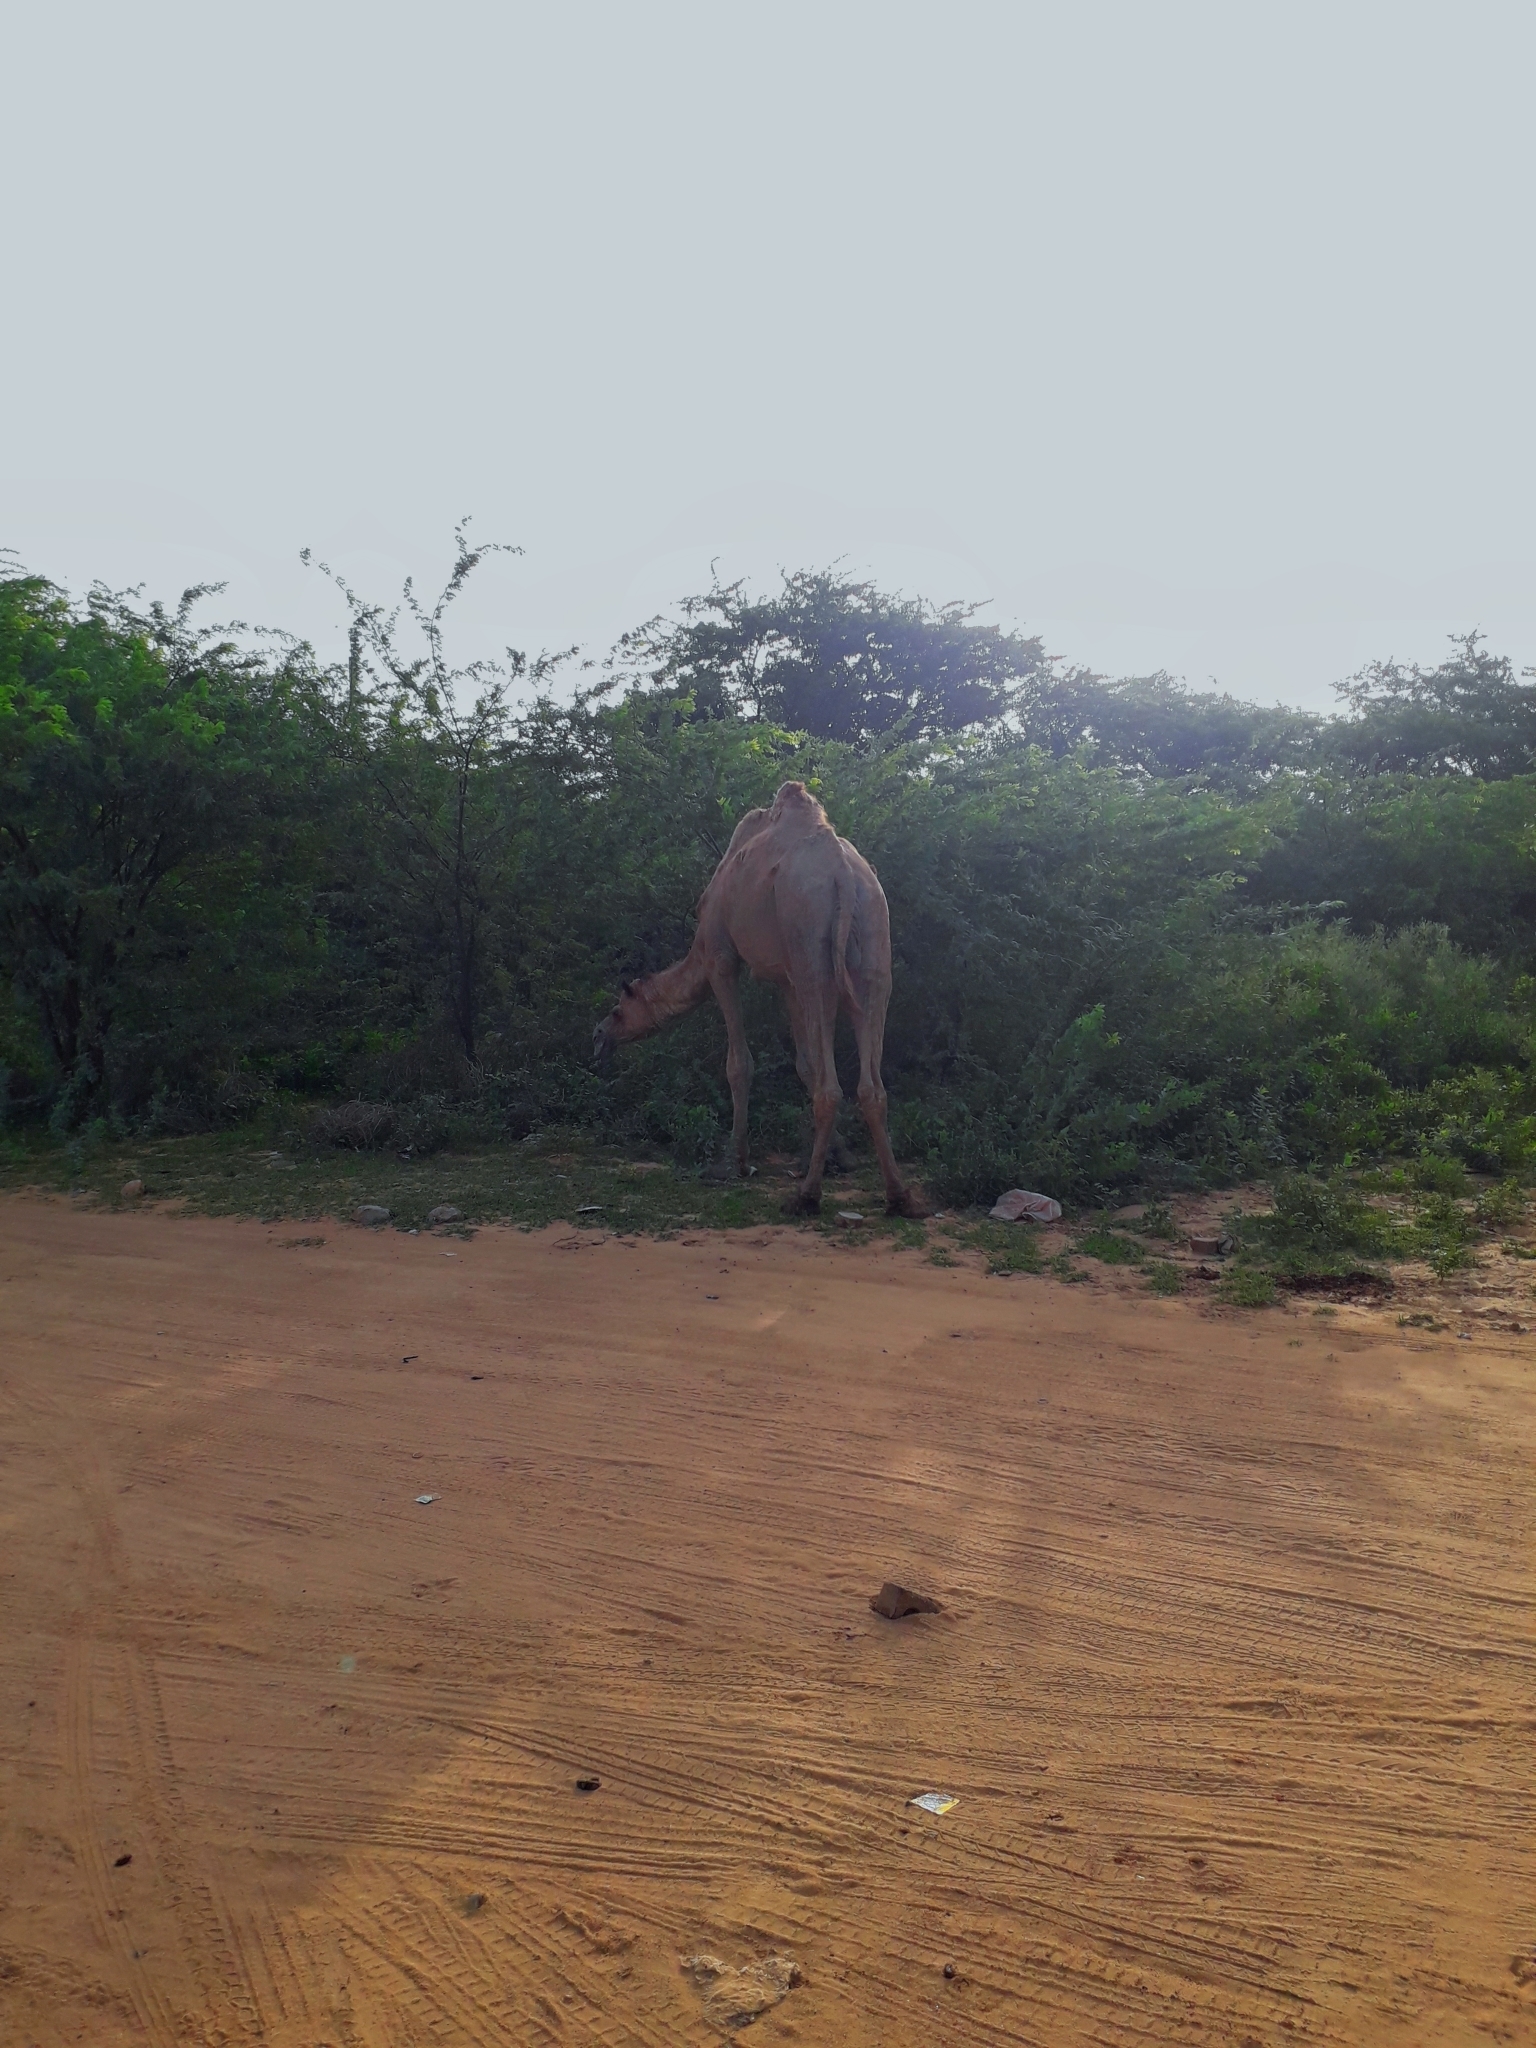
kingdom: Animalia
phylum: Chordata
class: Mammalia
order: Artiodactyla
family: Camelidae
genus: Camelus
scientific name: Camelus dromedarius
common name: One-humped camel
